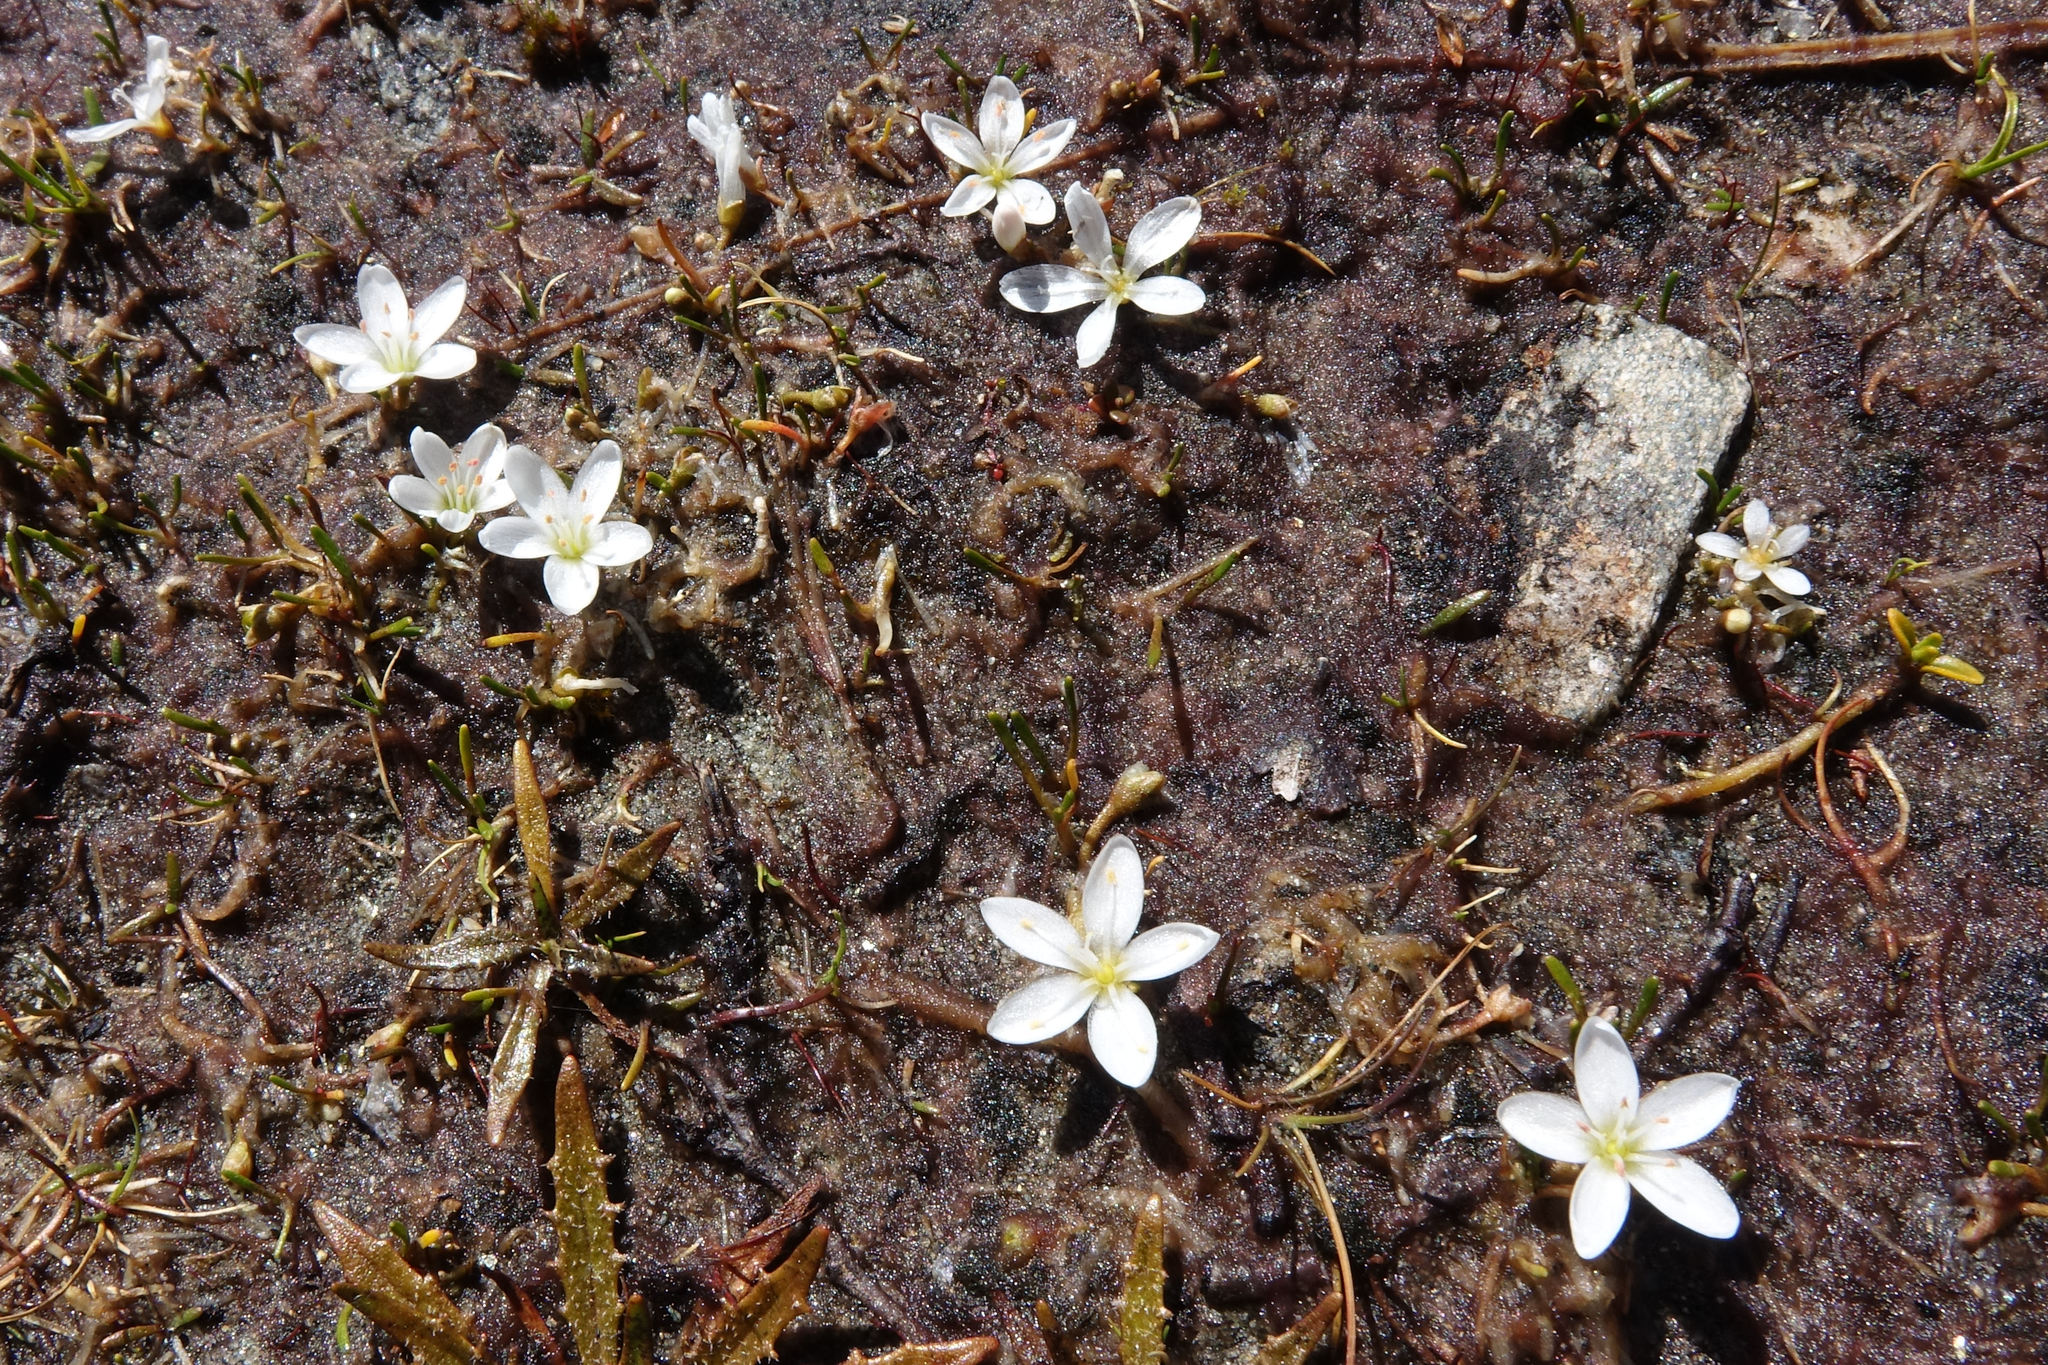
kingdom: Plantae
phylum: Tracheophyta
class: Magnoliopsida
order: Caryophyllales
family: Montiaceae
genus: Montia
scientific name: Montia sessiliflora
